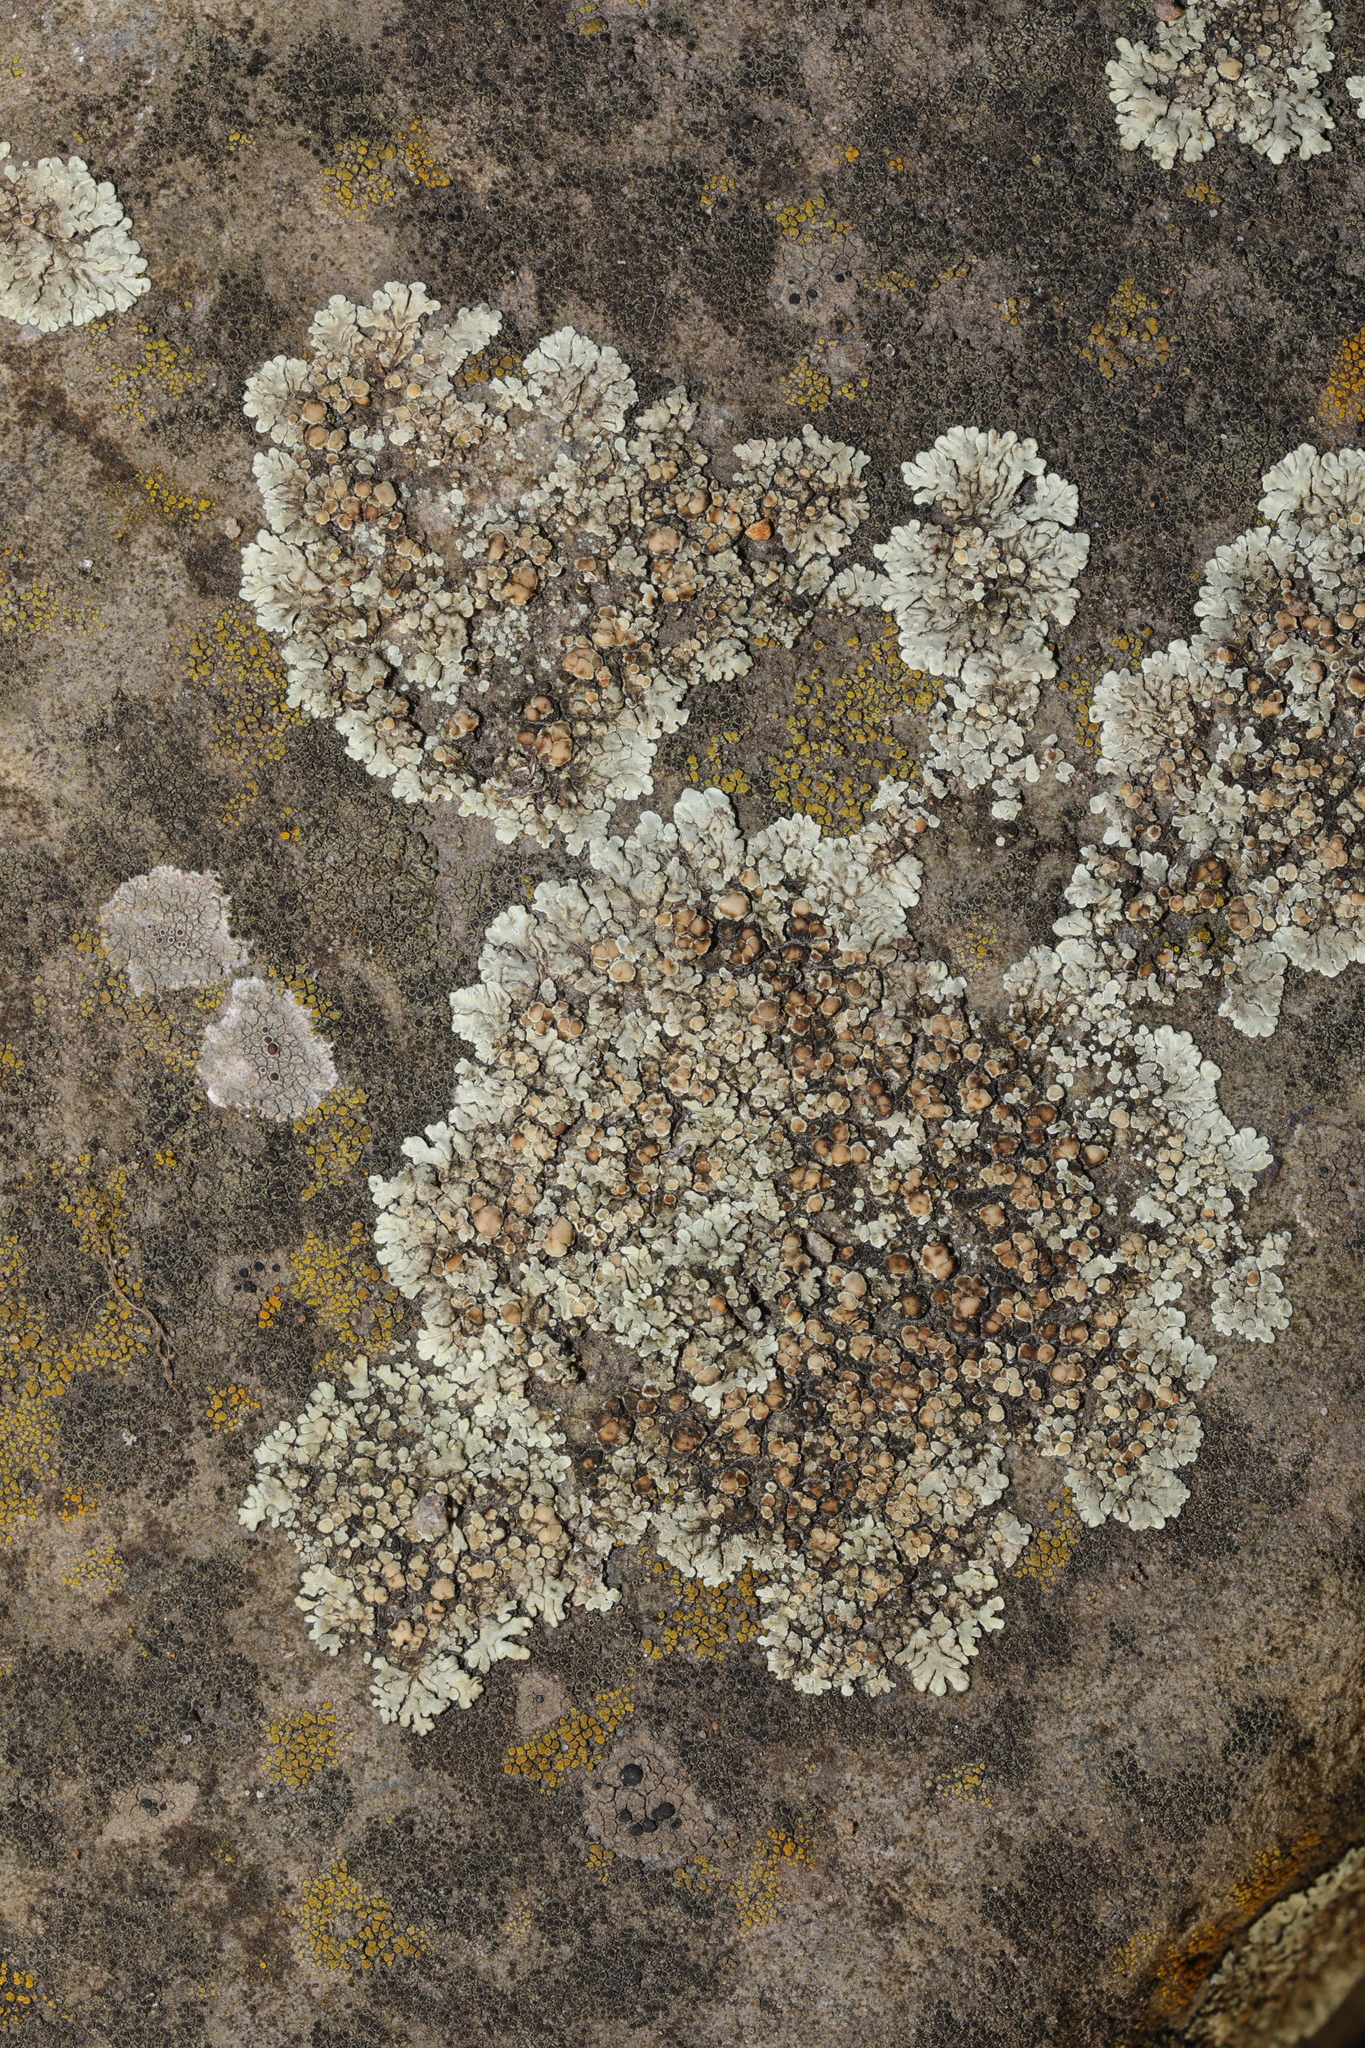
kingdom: Fungi
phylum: Ascomycota
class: Lecanoromycetes
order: Lecanorales
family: Lecanoraceae
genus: Protoparmeliopsis
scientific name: Protoparmeliopsis muralis
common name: Stonewall rim lichen
